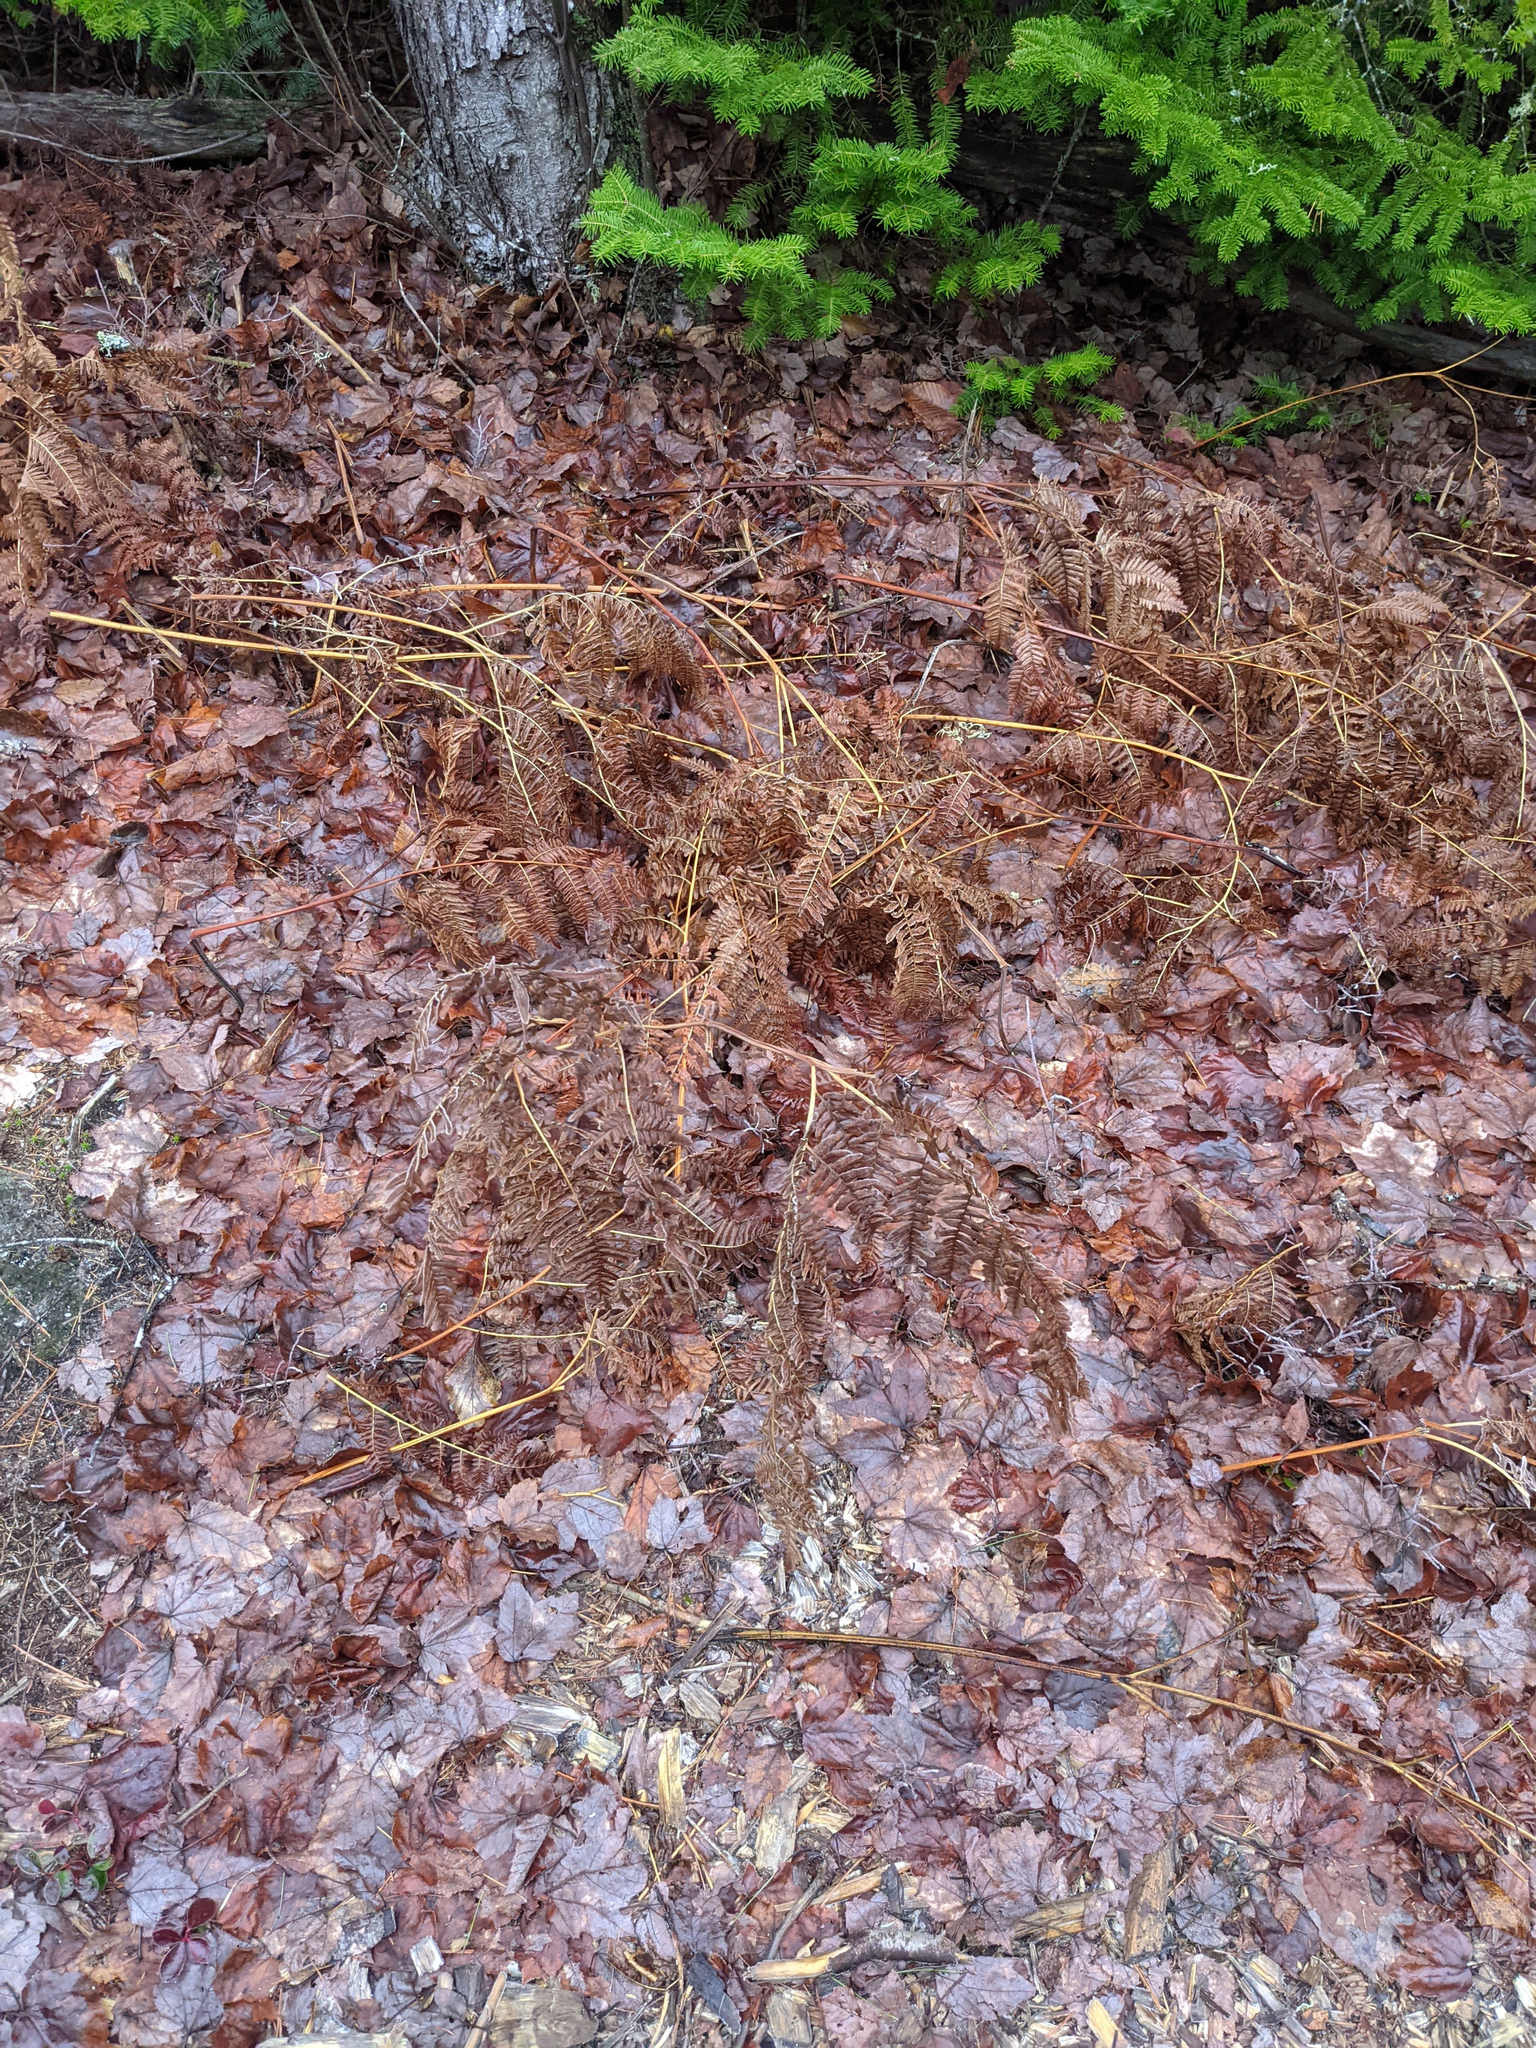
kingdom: Plantae
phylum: Tracheophyta
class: Polypodiopsida
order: Polypodiales
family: Dennstaedtiaceae
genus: Pteridium
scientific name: Pteridium aquilinum
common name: Bracken
